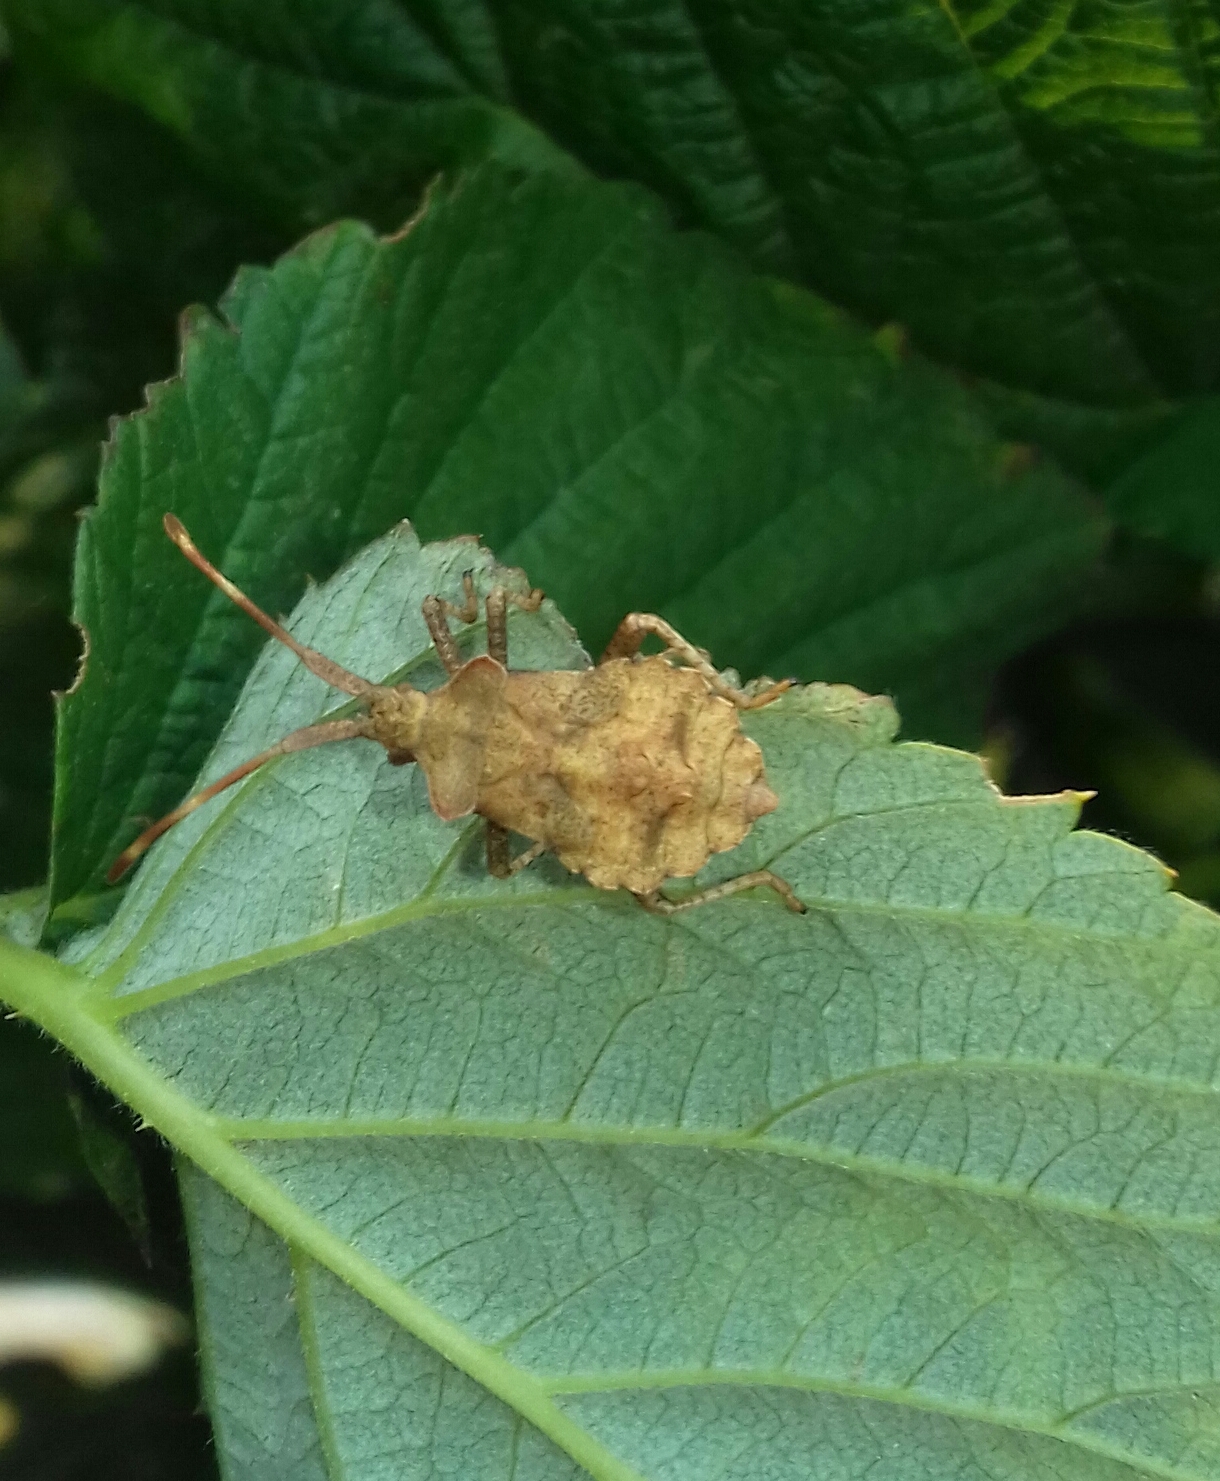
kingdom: Animalia
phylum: Arthropoda
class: Insecta
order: Hemiptera
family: Coreidae
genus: Coreus
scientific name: Coreus marginatus
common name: Dock bug
